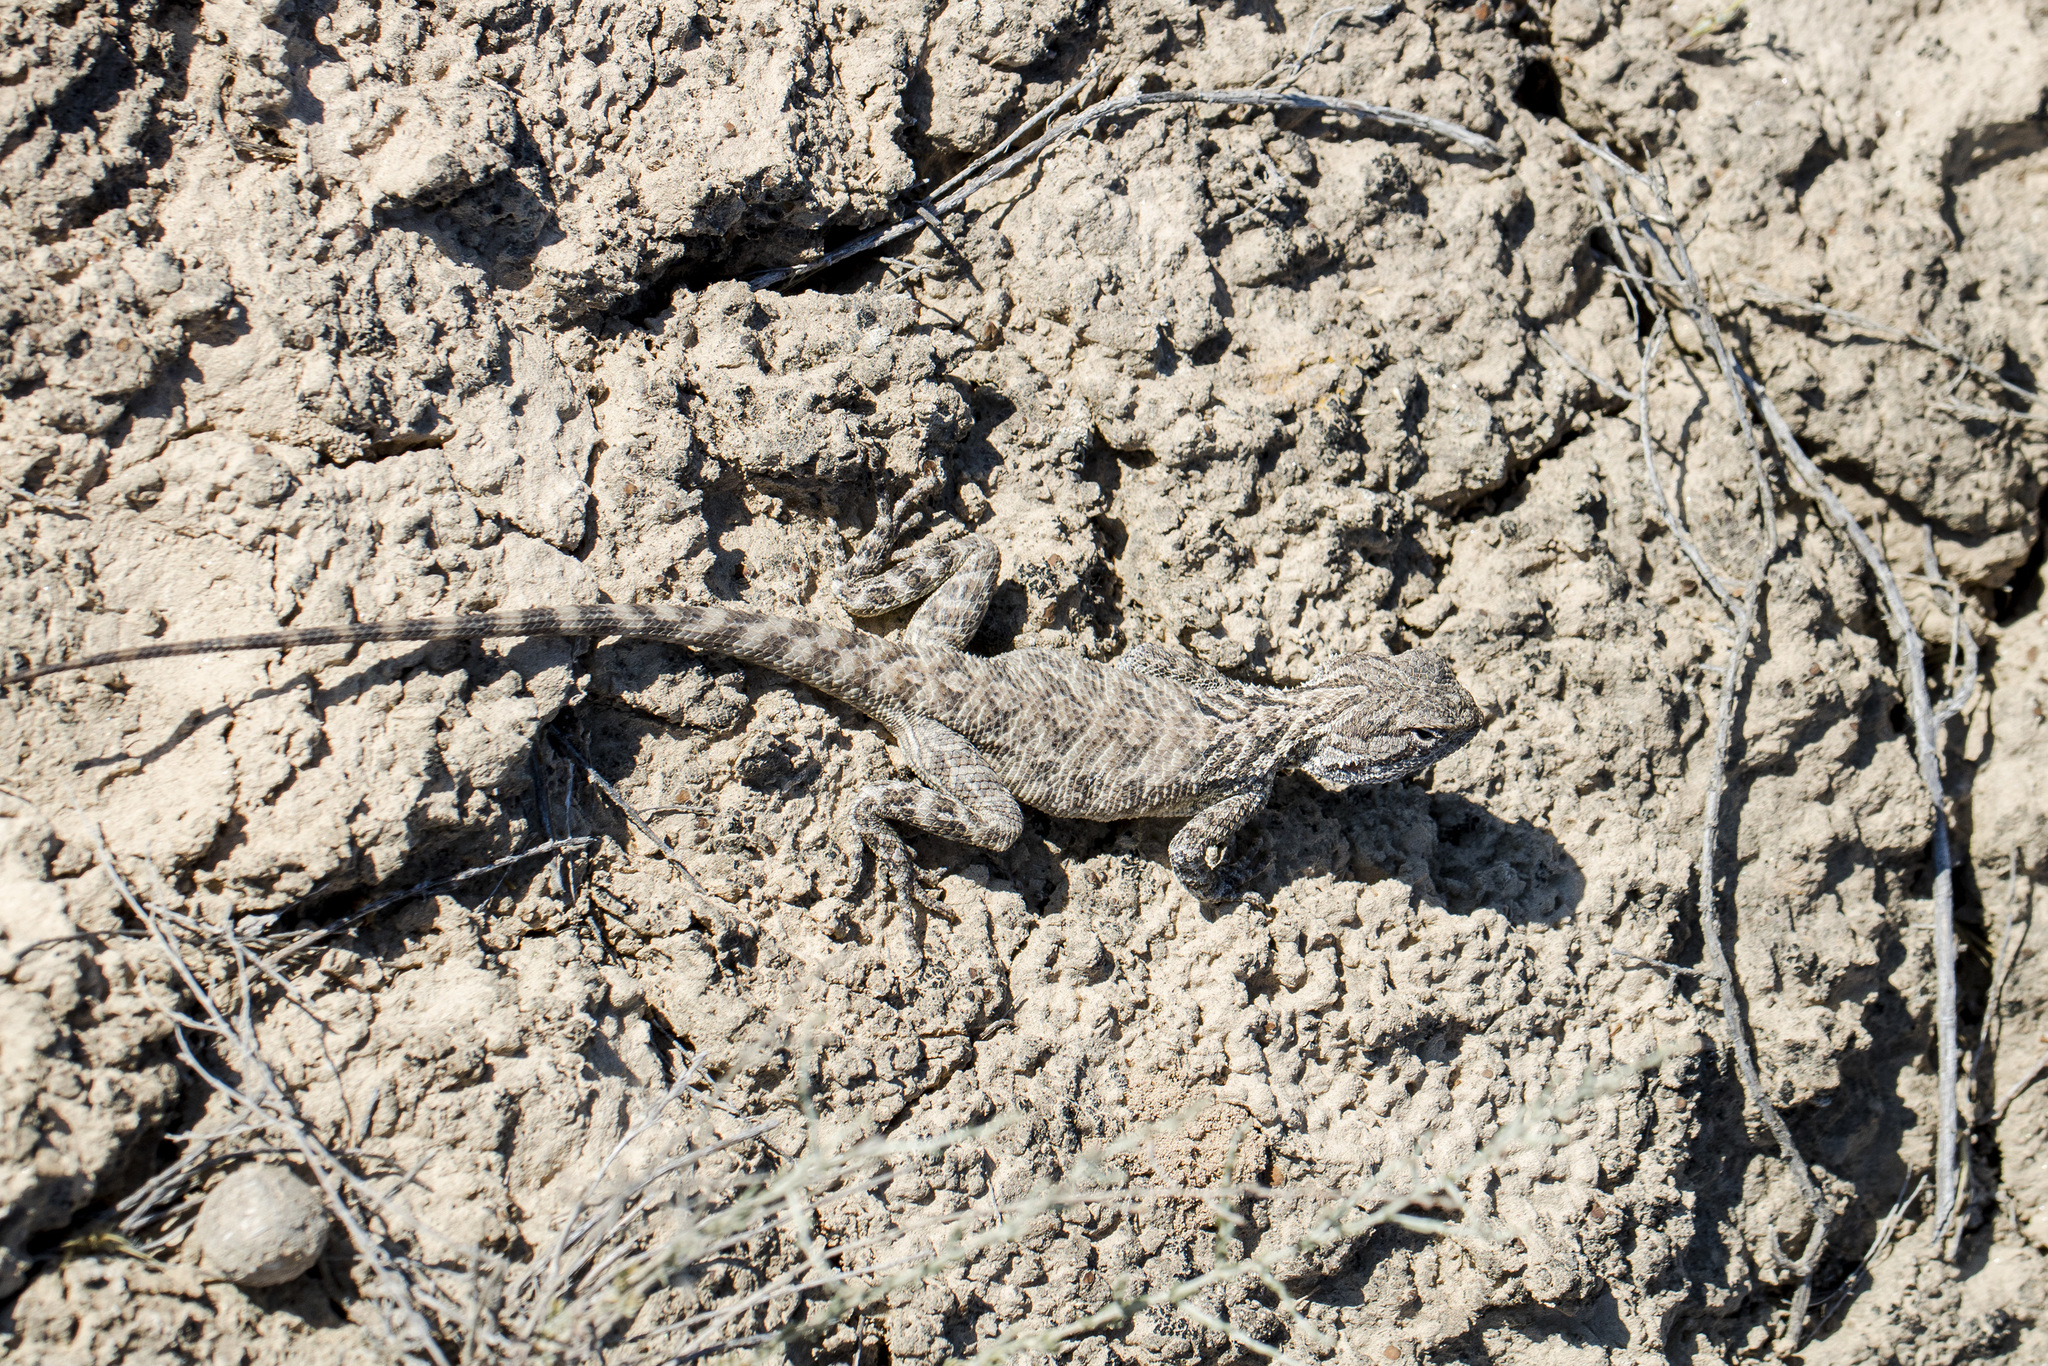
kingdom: Animalia
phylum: Chordata
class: Squamata
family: Agamidae
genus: Trapelus
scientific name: Trapelus sanguinolentus
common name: Steppe agama
